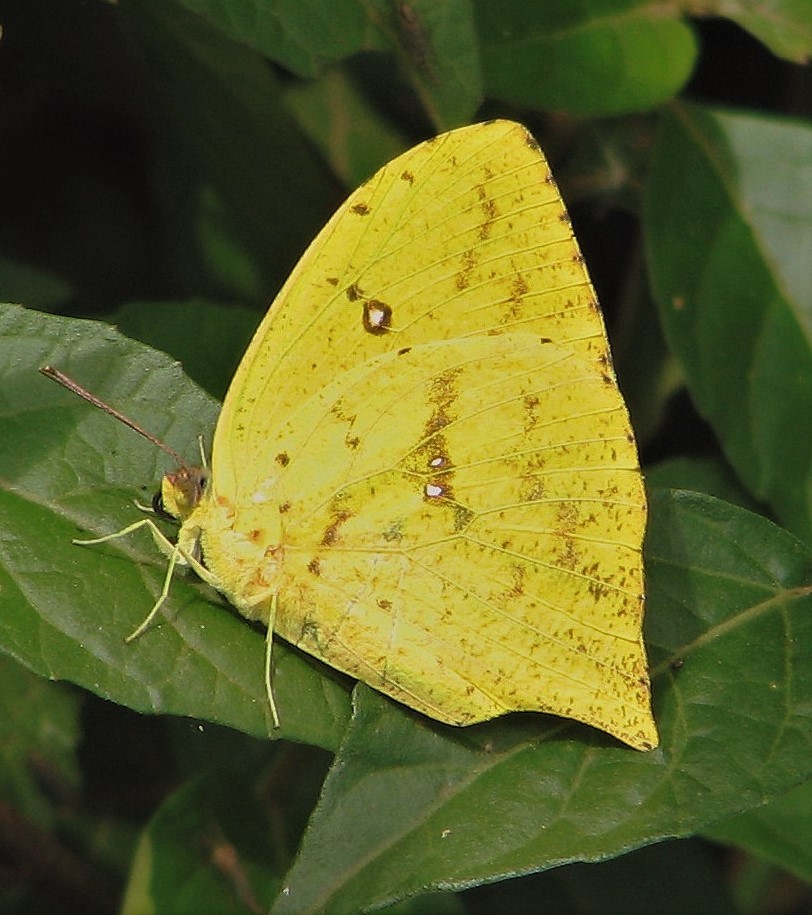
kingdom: Animalia
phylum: Arthropoda
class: Insecta
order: Lepidoptera
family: Pieridae
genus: Phoebis
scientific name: Phoebis neocypris
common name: Tailed sulphur
